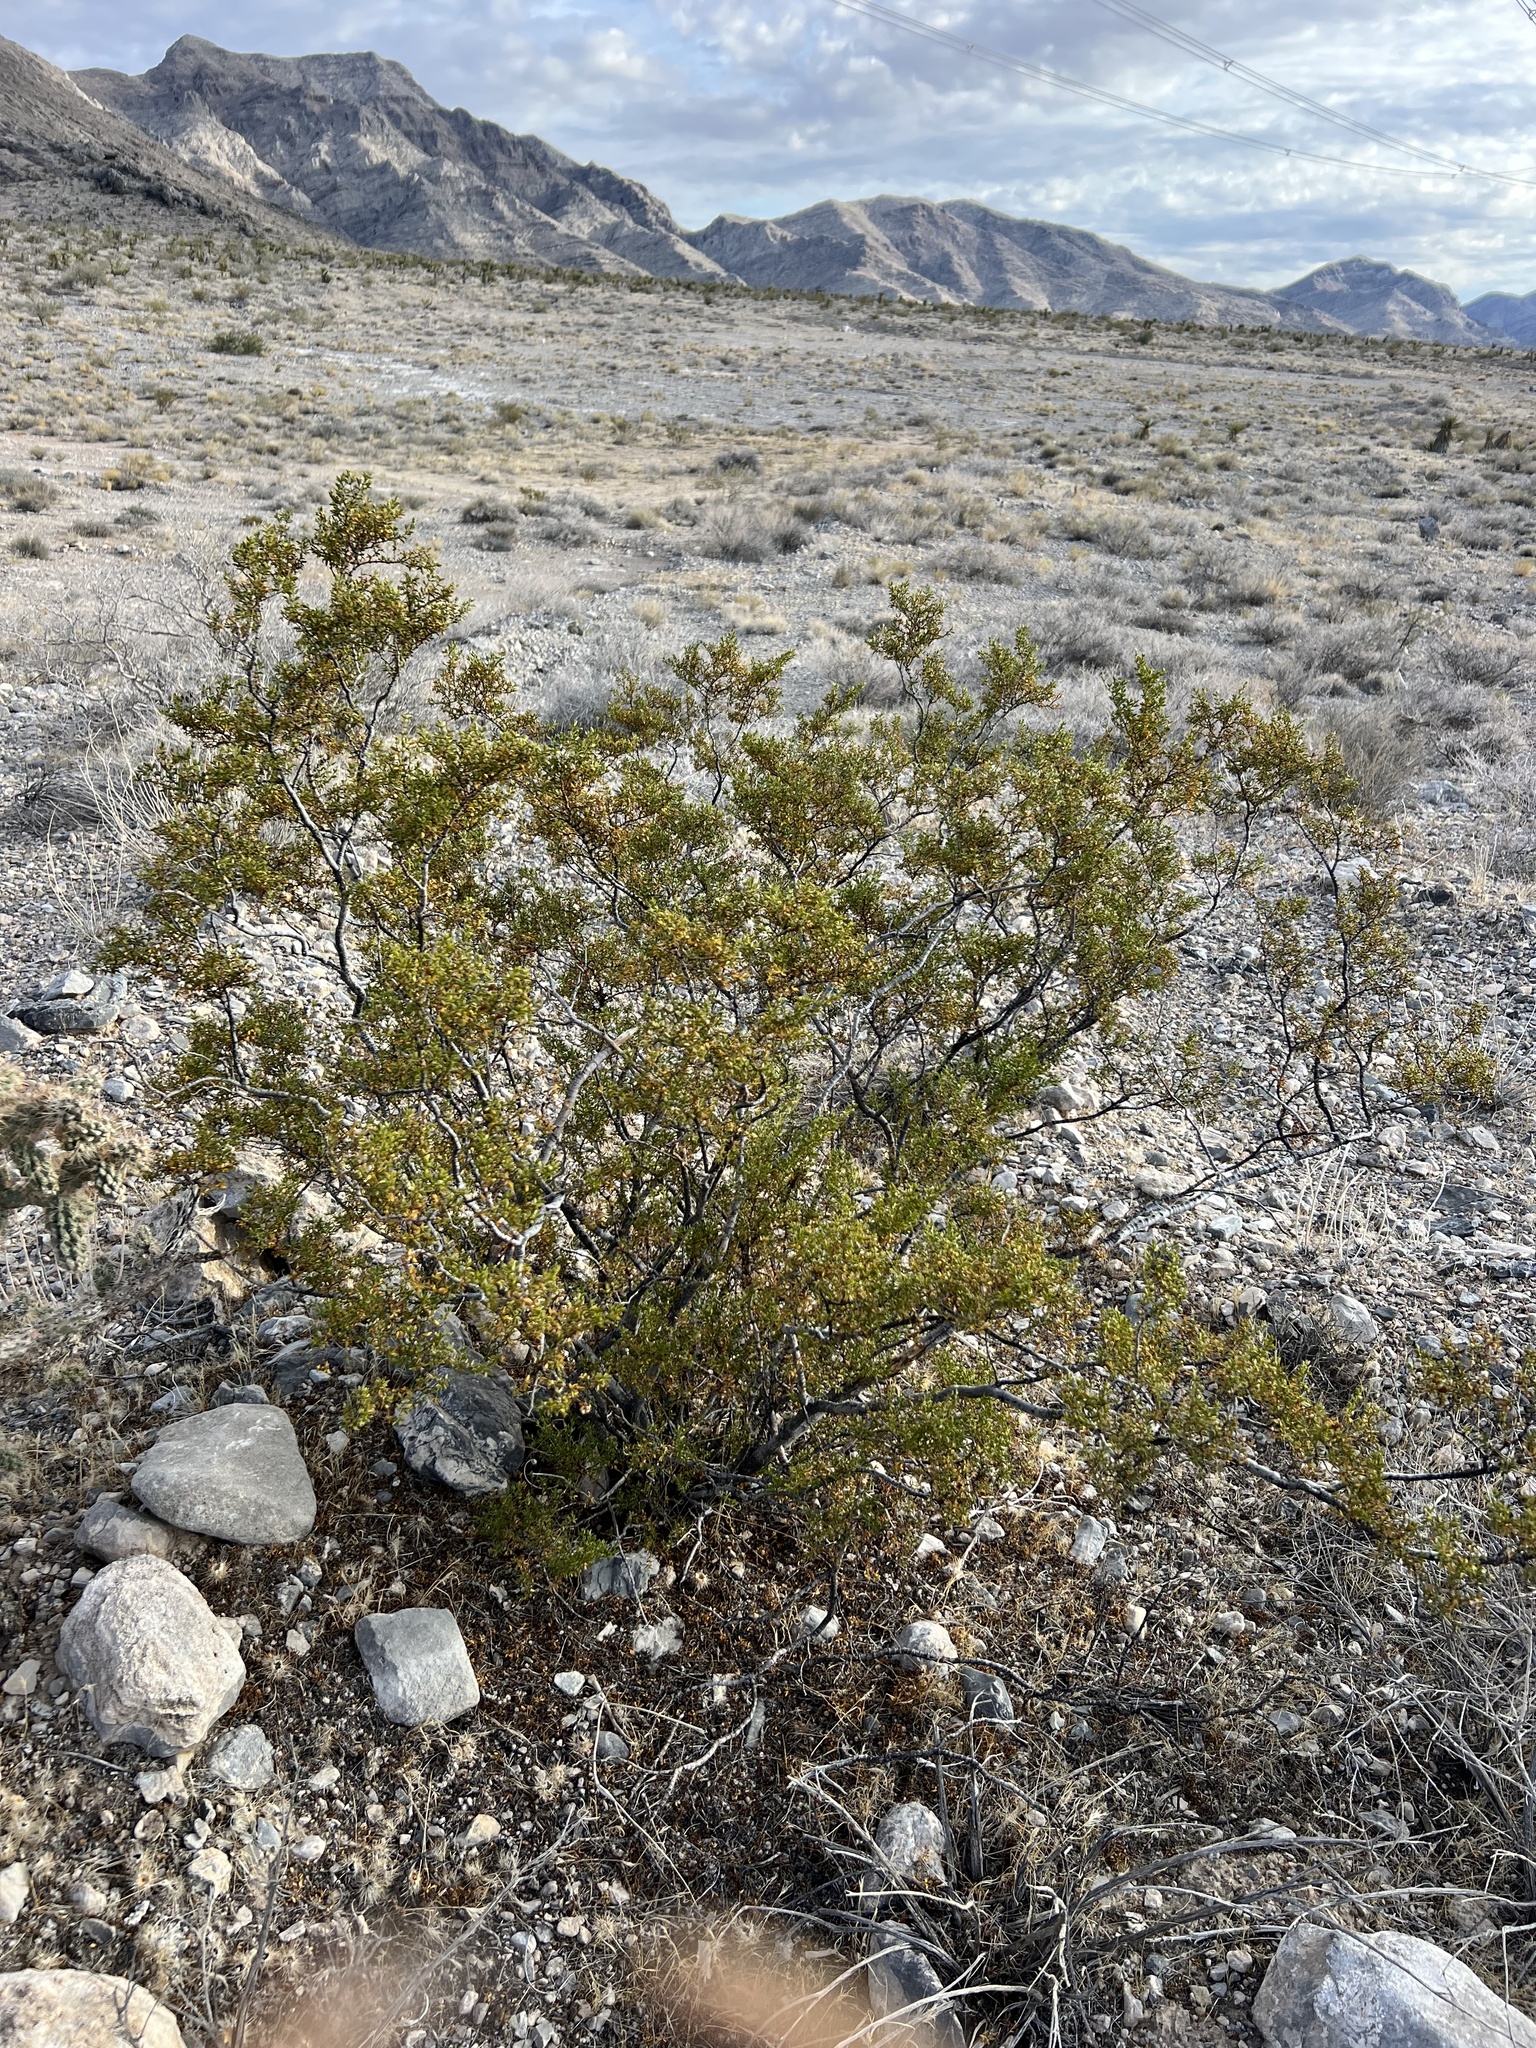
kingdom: Plantae
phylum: Tracheophyta
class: Magnoliopsida
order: Zygophyllales
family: Zygophyllaceae
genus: Larrea
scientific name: Larrea tridentata
